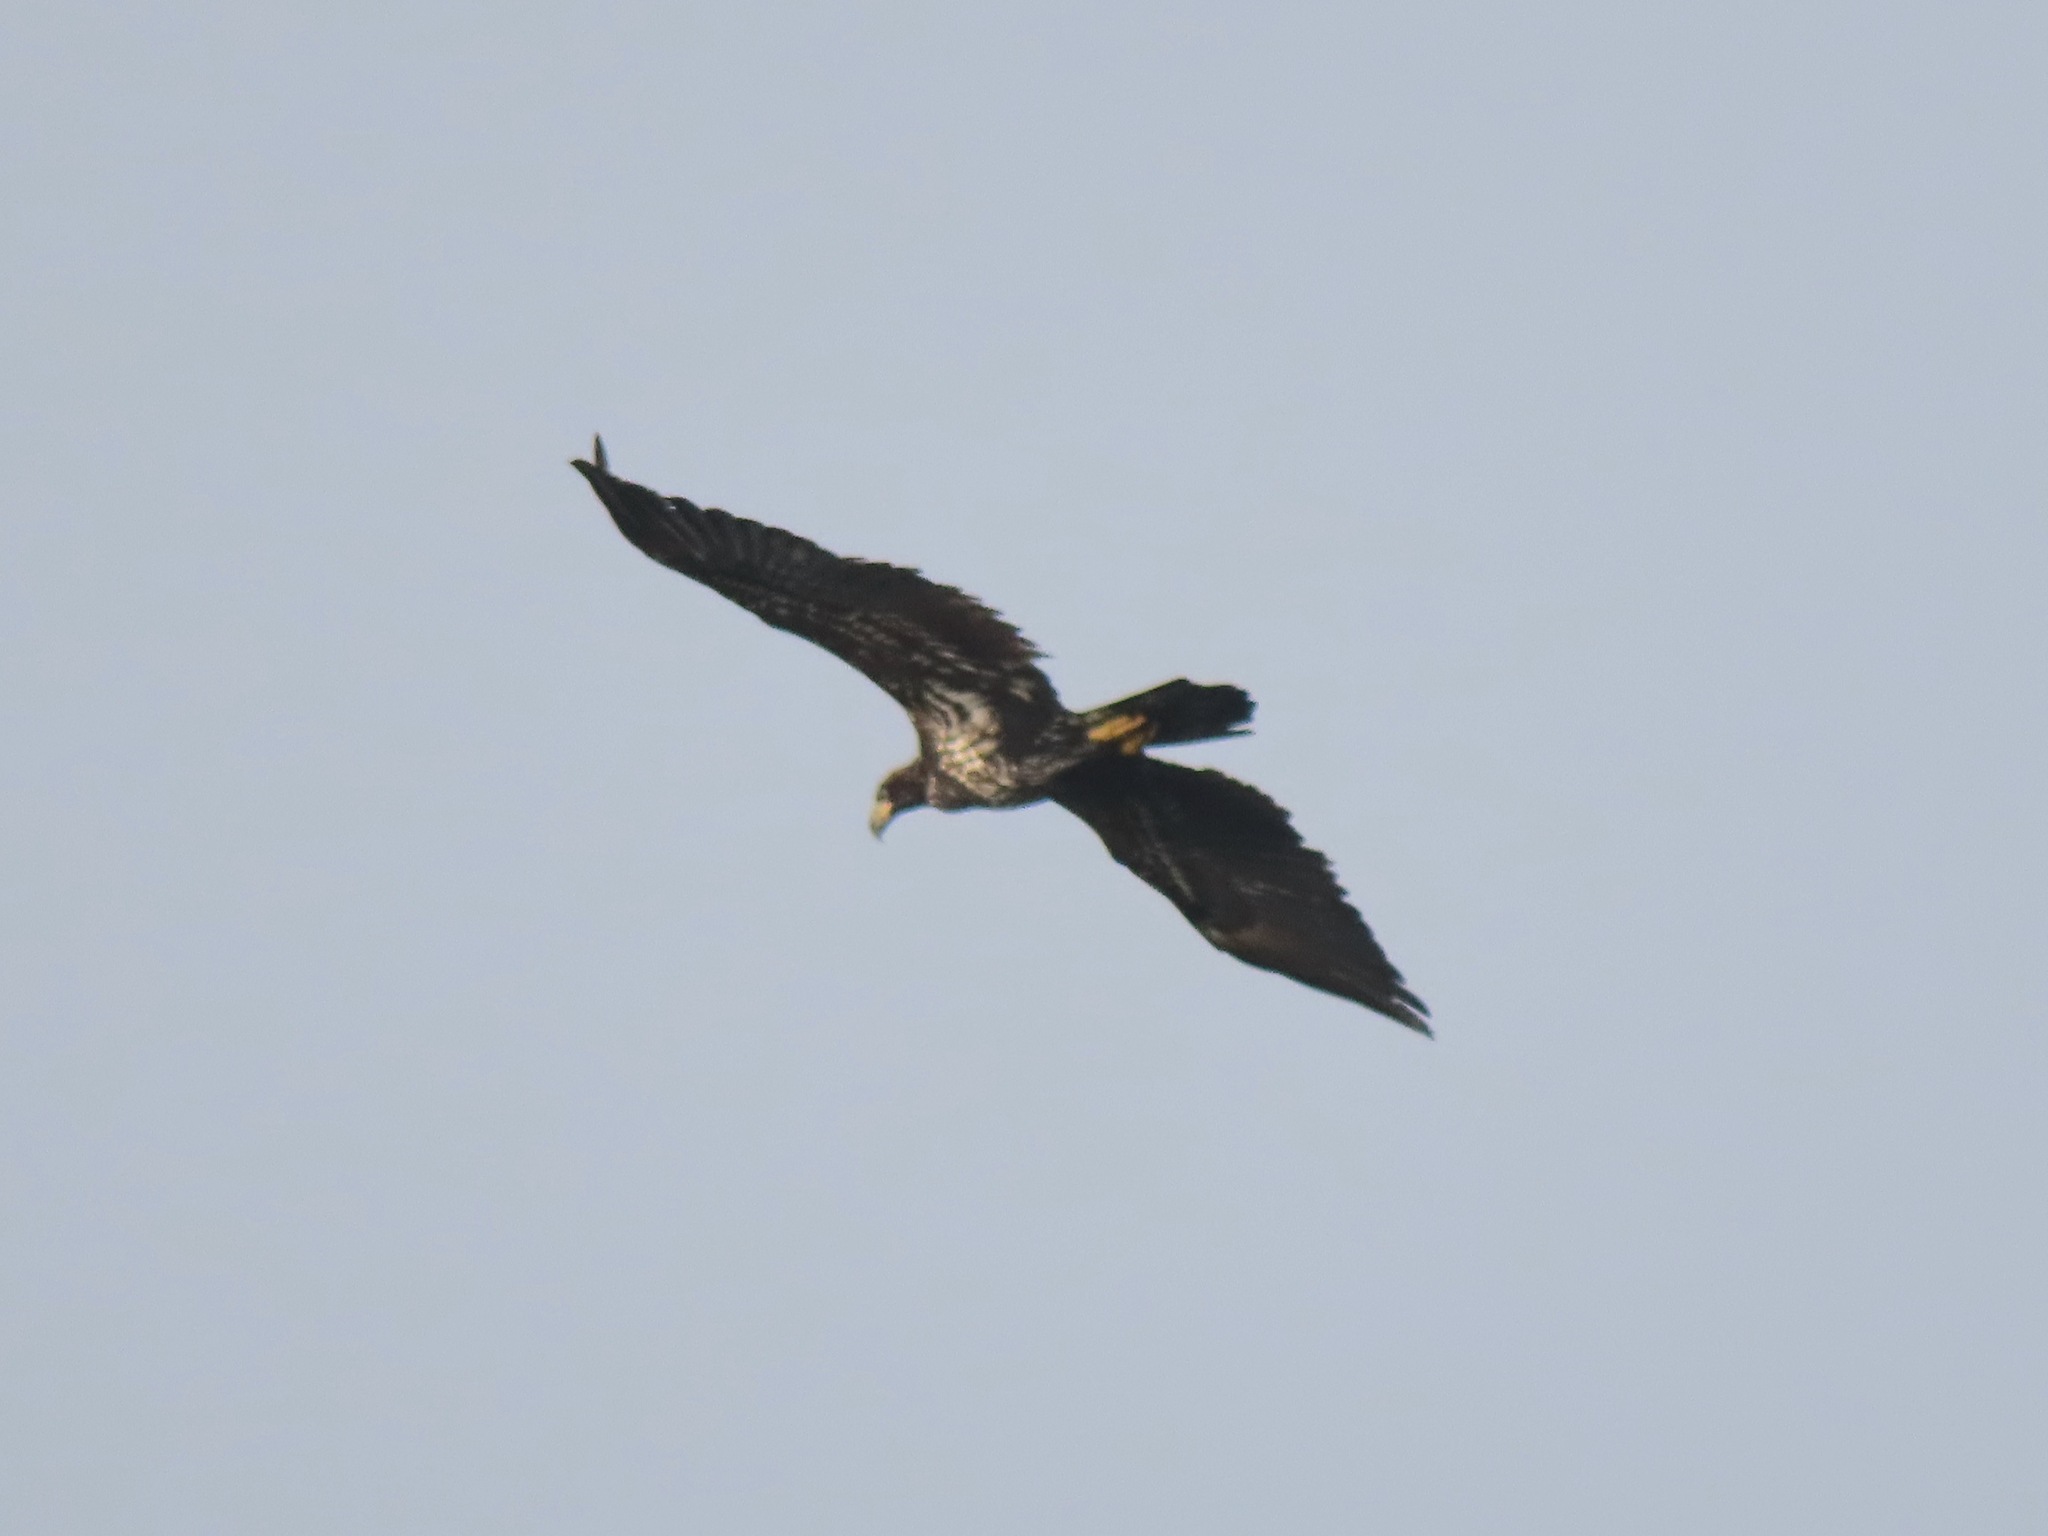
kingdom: Animalia
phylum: Chordata
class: Aves
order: Accipitriformes
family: Accipitridae
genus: Haliaeetus
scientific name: Haliaeetus leucocephalus
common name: Bald eagle
